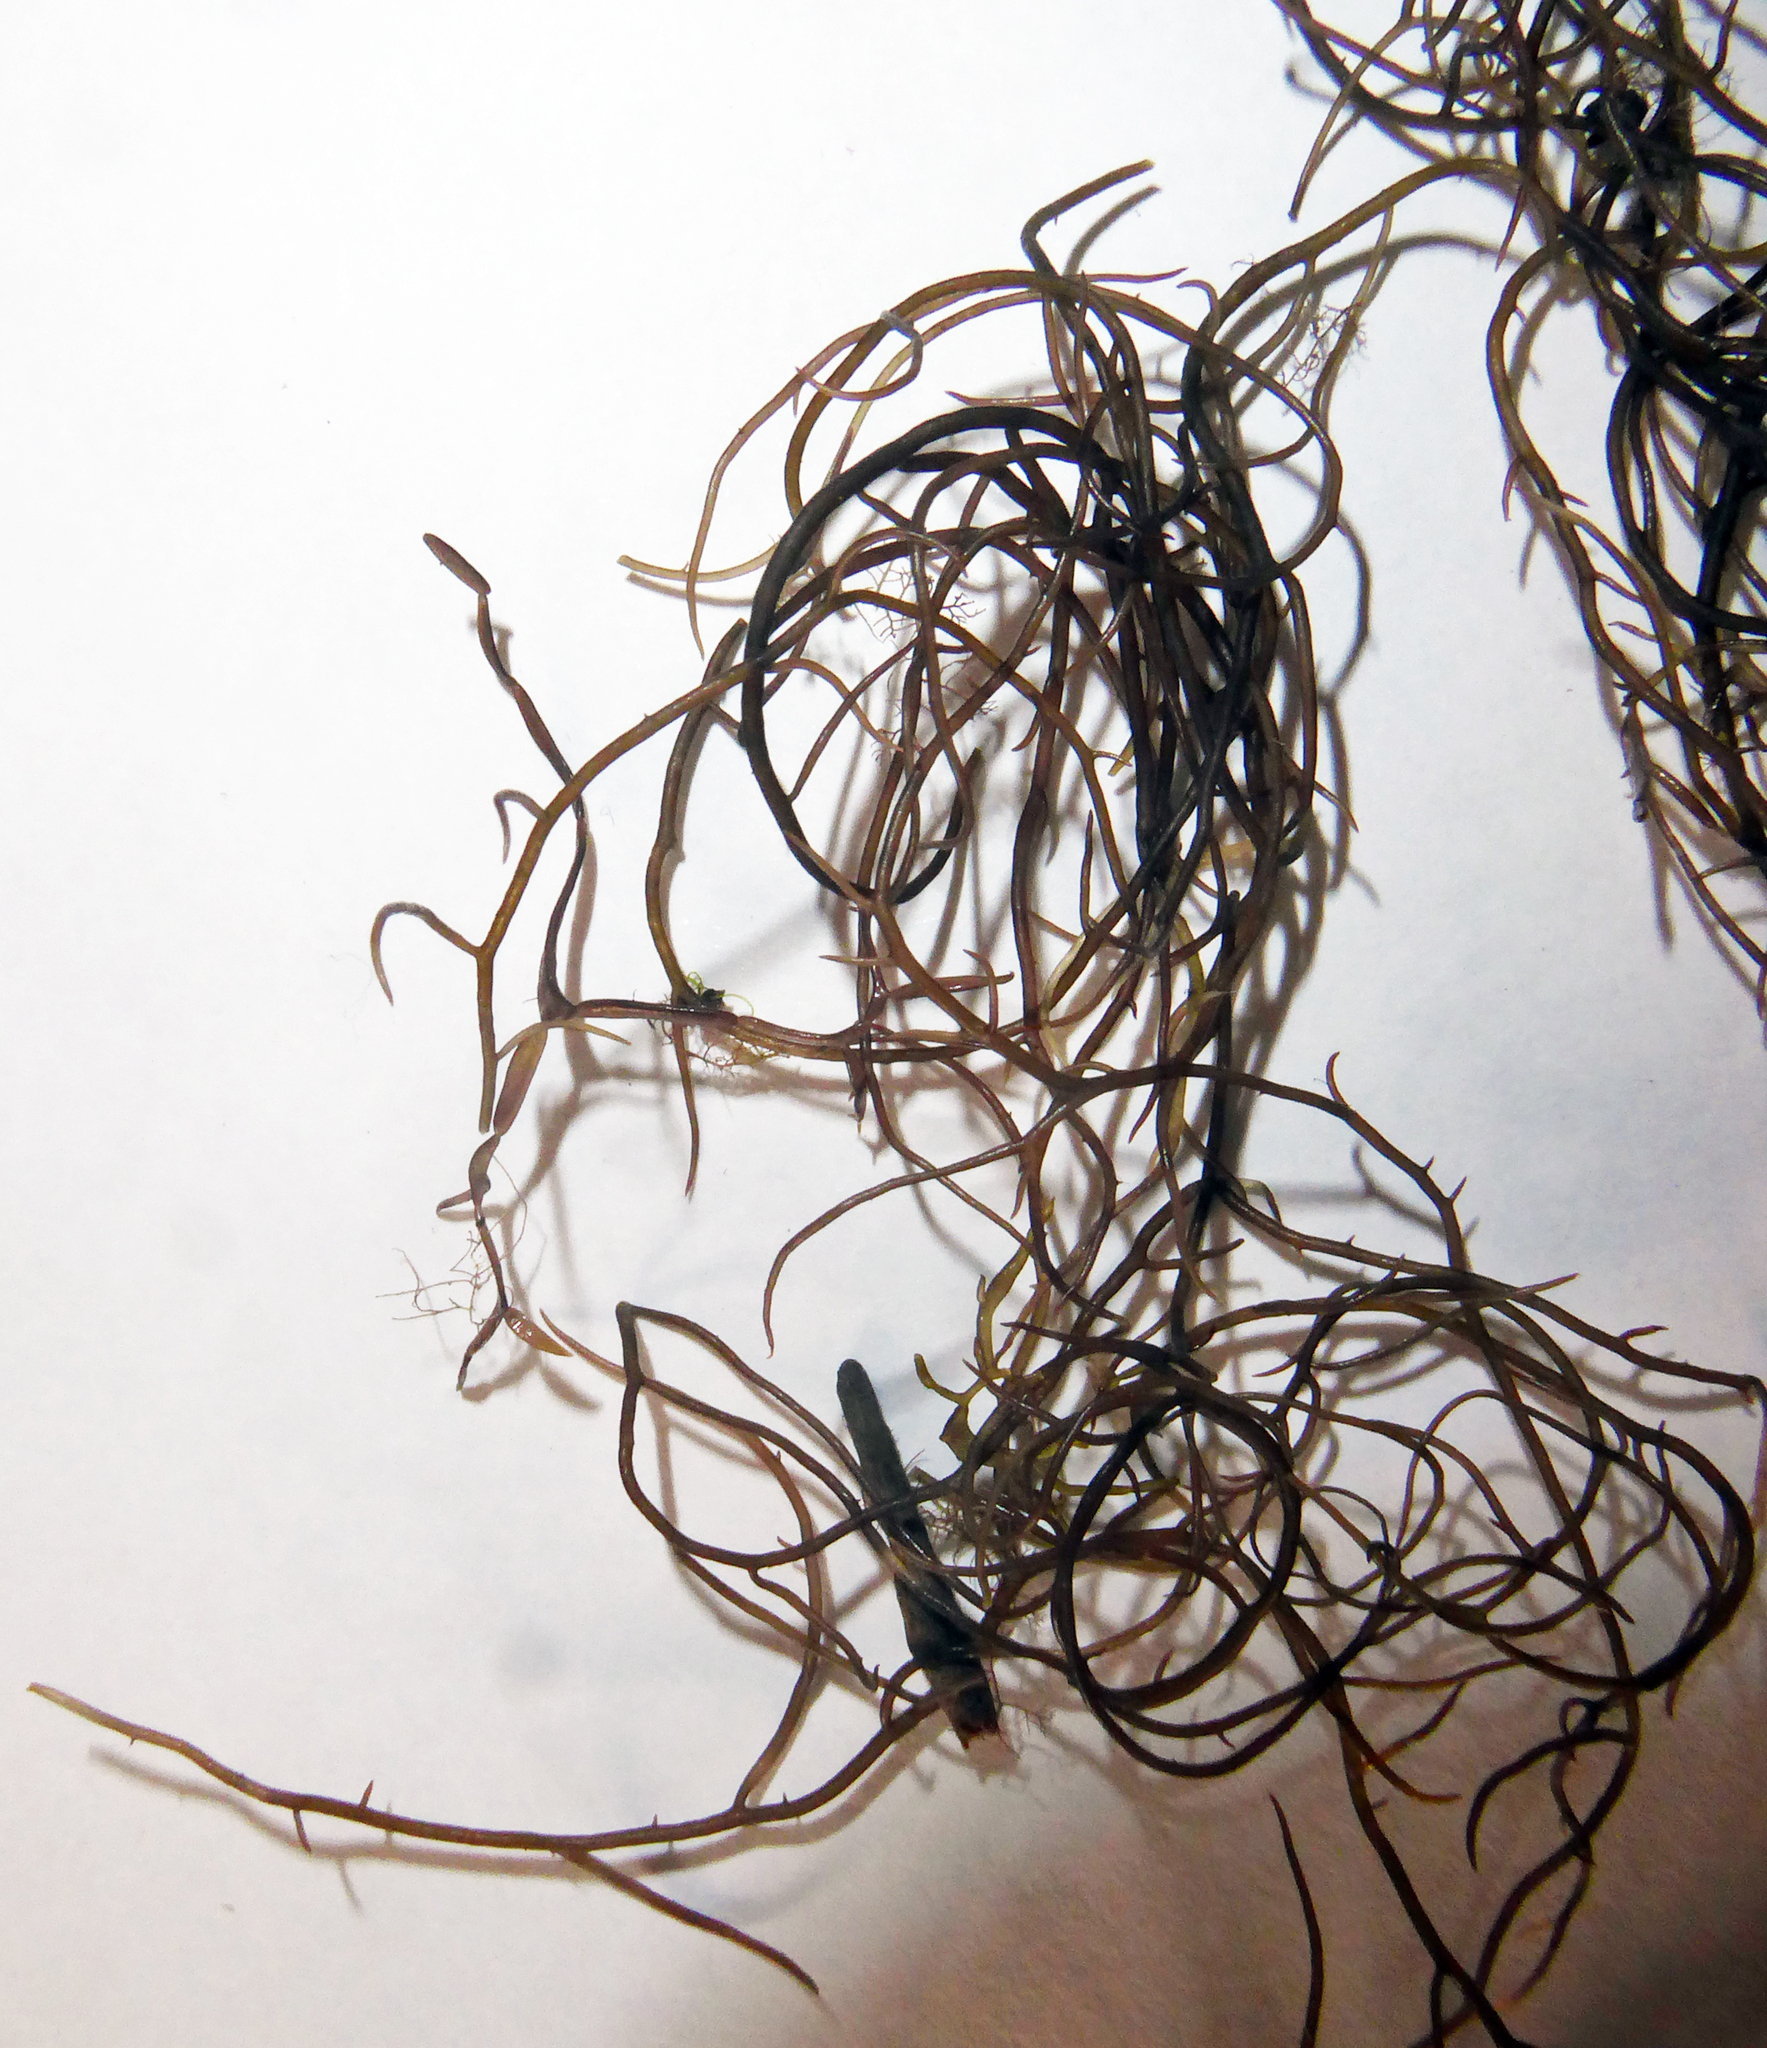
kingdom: Plantae
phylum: Rhodophyta
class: Florideophyceae
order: Gracilariales
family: Gracilariaceae
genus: Gracilaria
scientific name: Gracilaria chilensis
